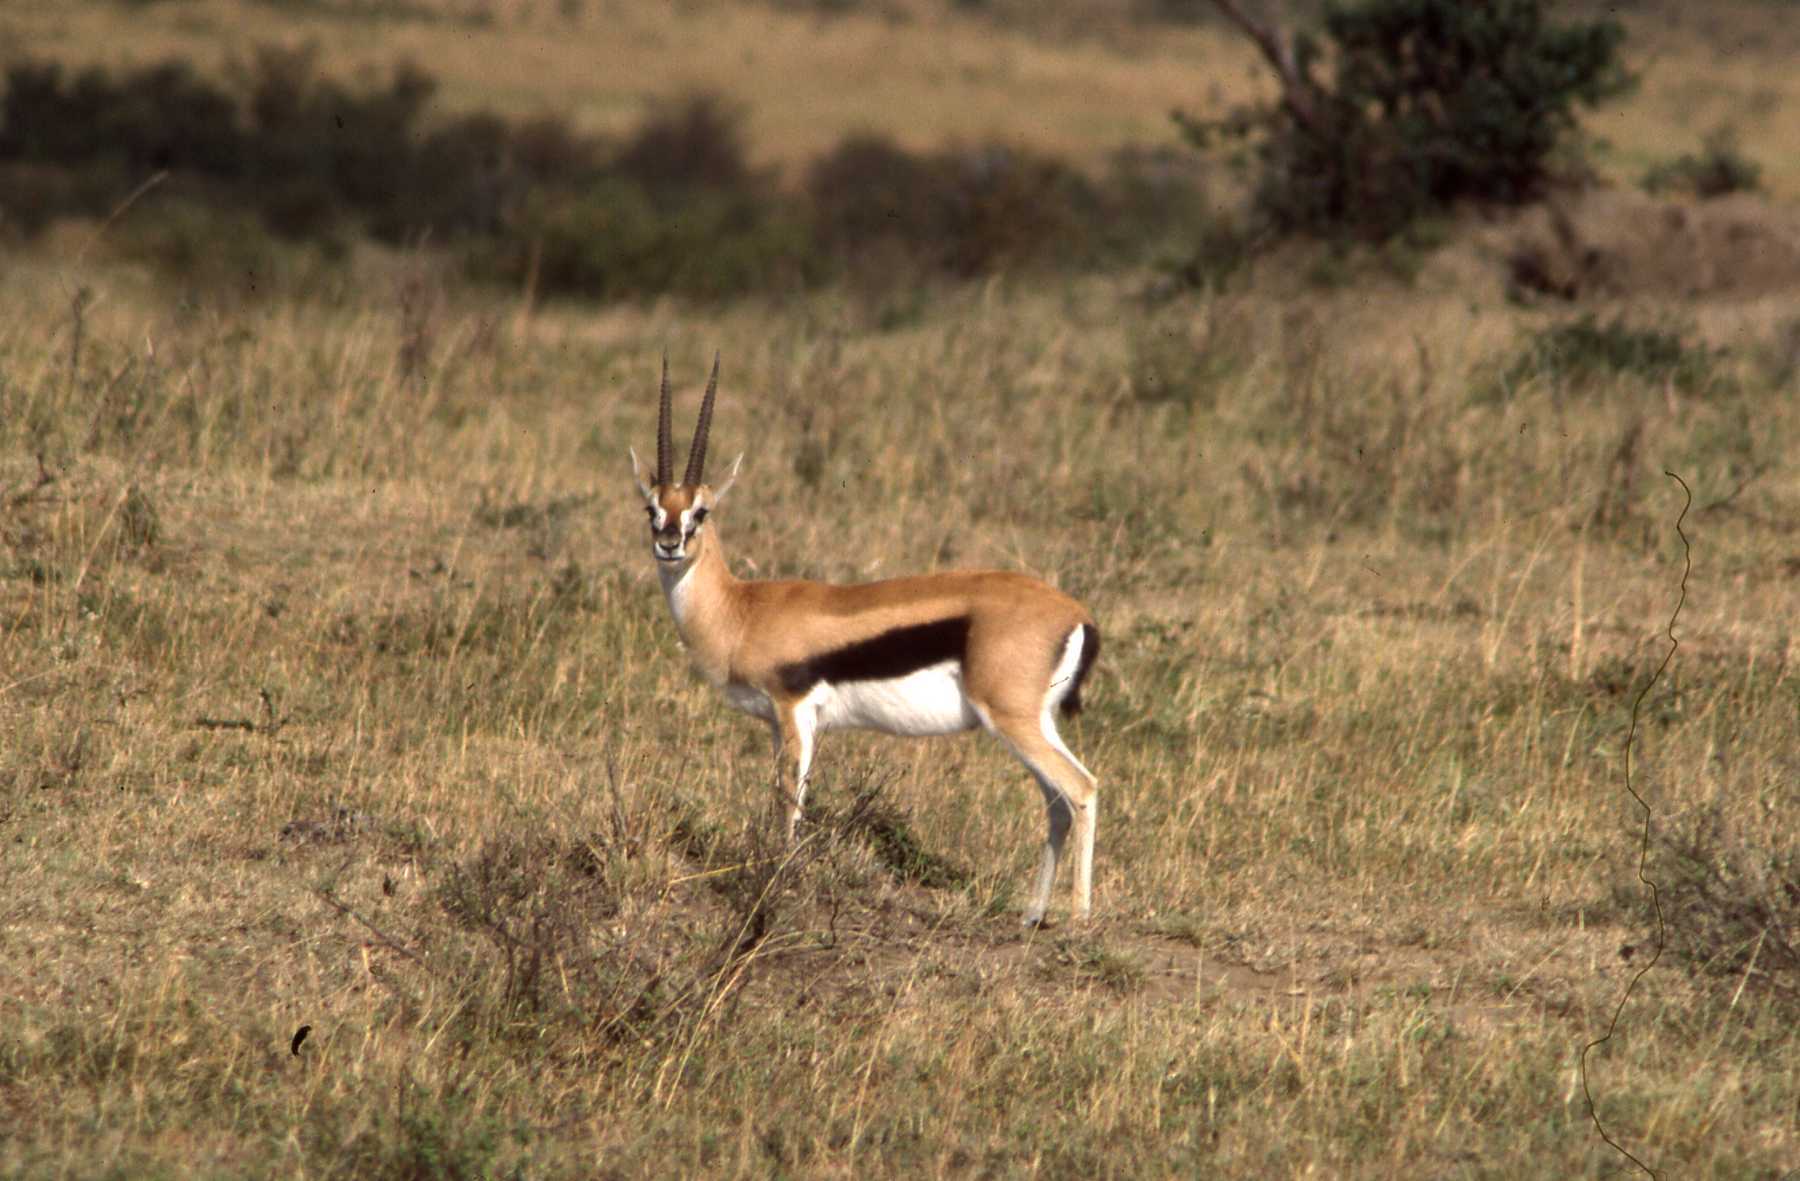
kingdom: Animalia
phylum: Chordata
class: Mammalia
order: Artiodactyla
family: Bovidae
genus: Eudorcas
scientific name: Eudorcas thomsonii
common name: Thomson's gazelle
